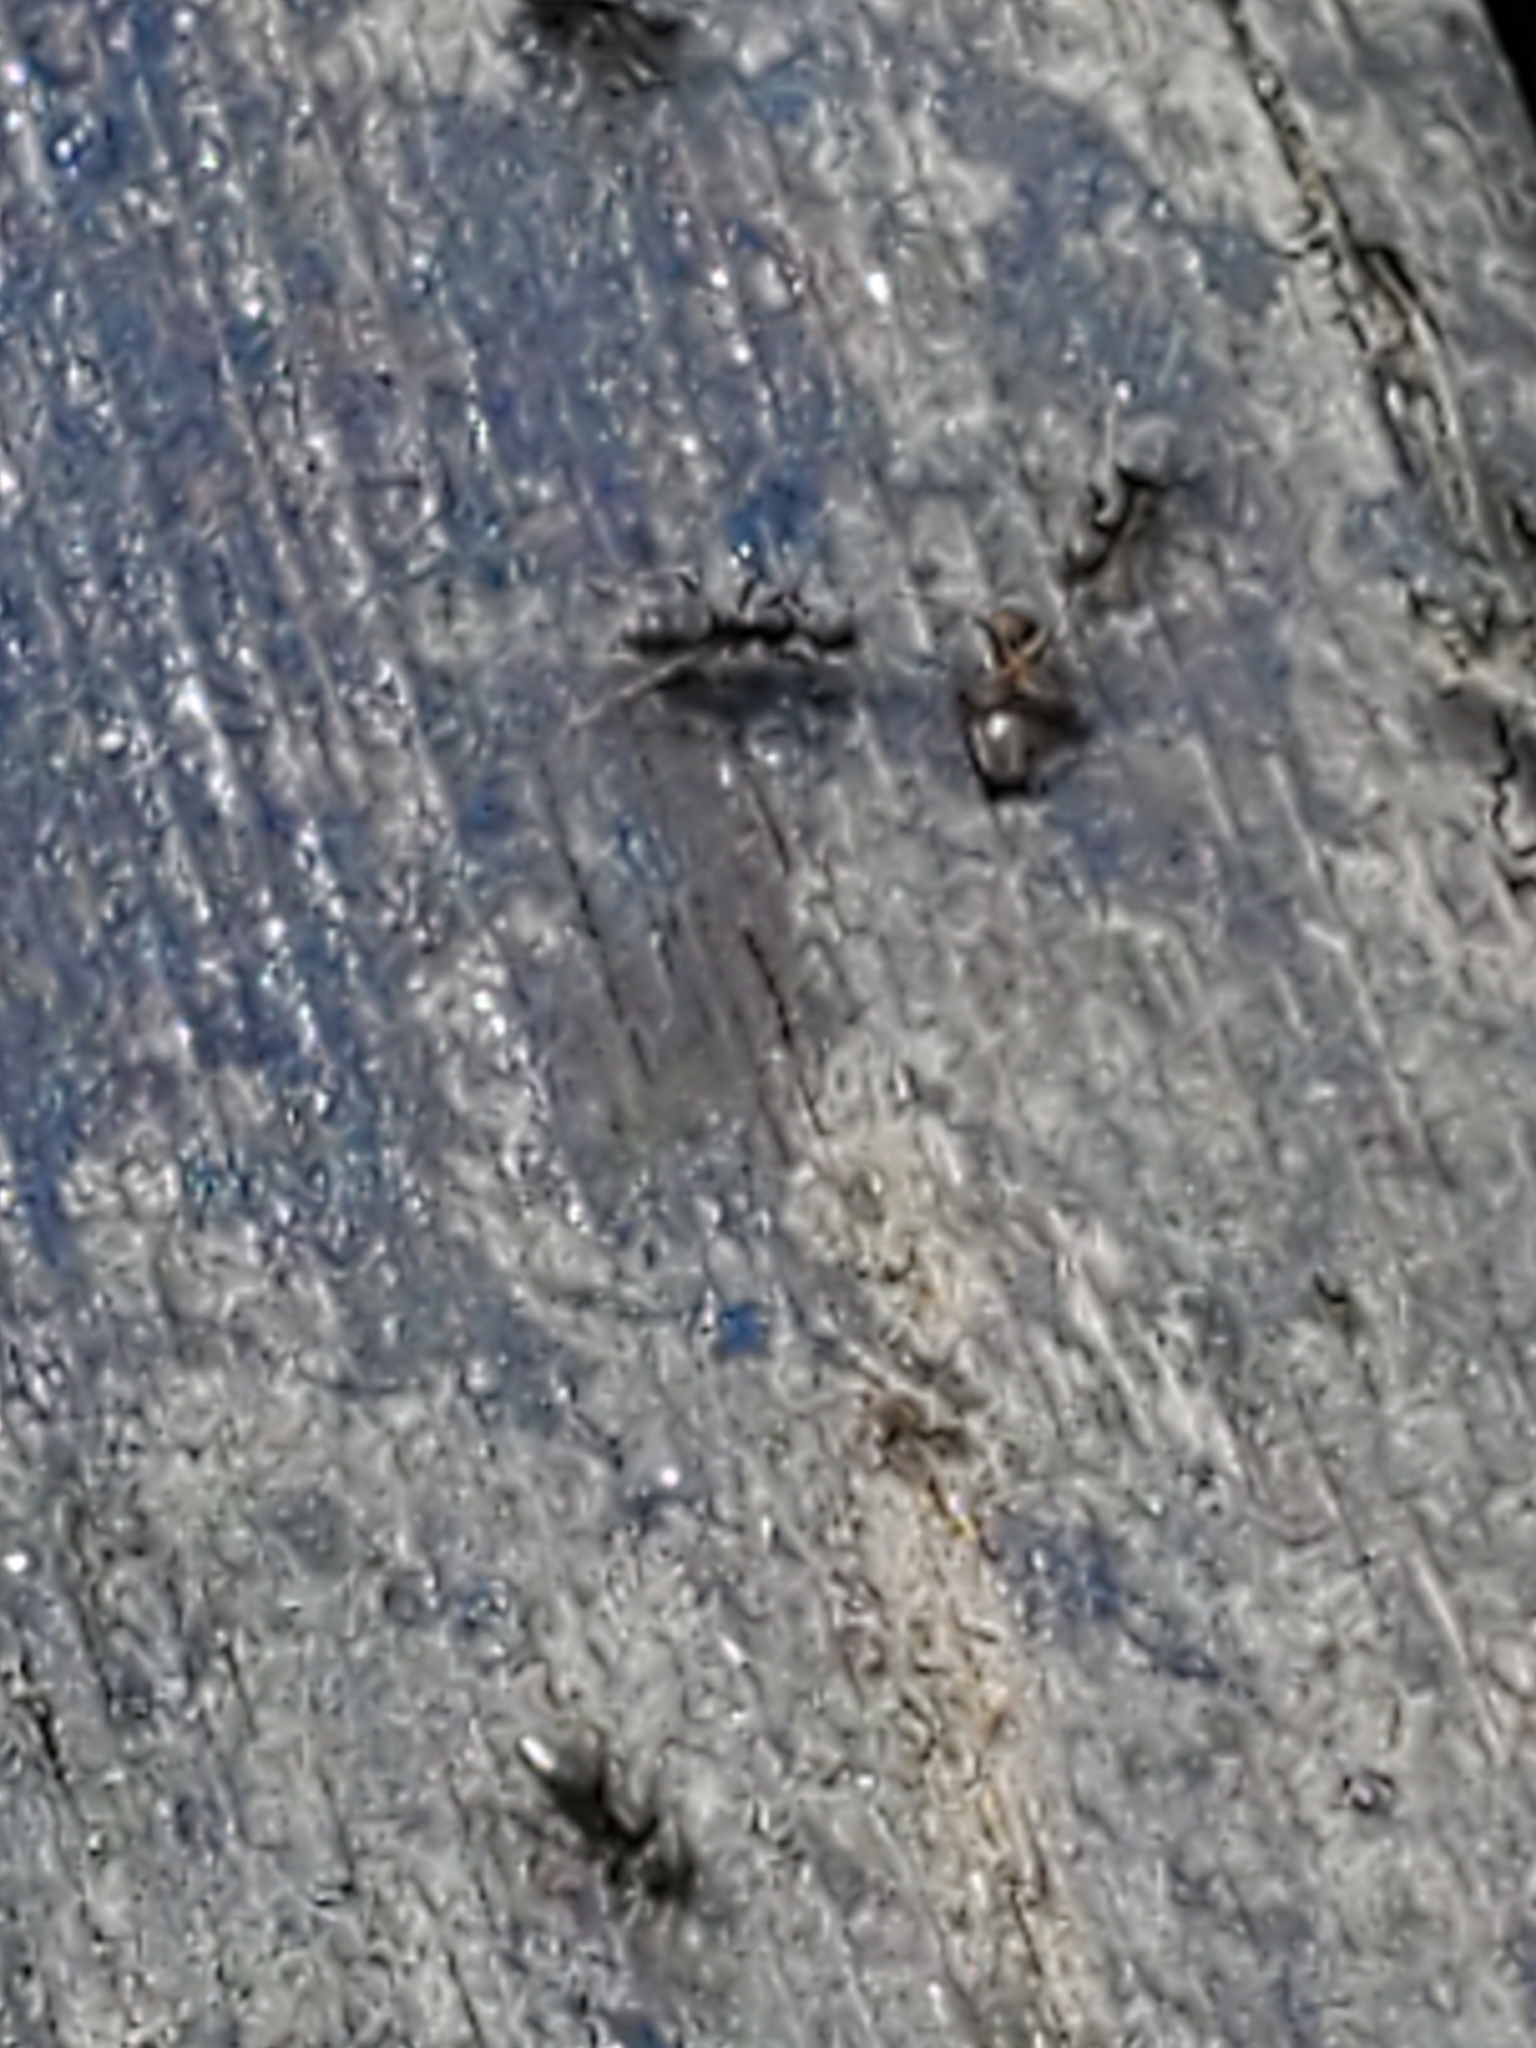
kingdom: Animalia
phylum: Arthropoda
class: Insecta
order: Hymenoptera
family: Formicidae
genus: Tapinoma
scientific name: Tapinoma sessile
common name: Odorous house ant
